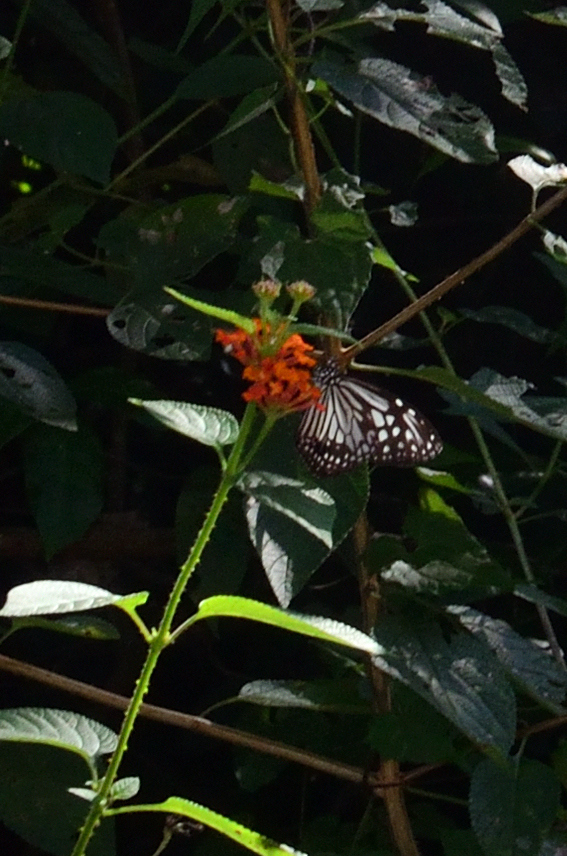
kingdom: Animalia
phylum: Arthropoda
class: Insecta
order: Lepidoptera
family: Nymphalidae
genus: Parantica
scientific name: Parantica aglea
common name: Glassy tiger
